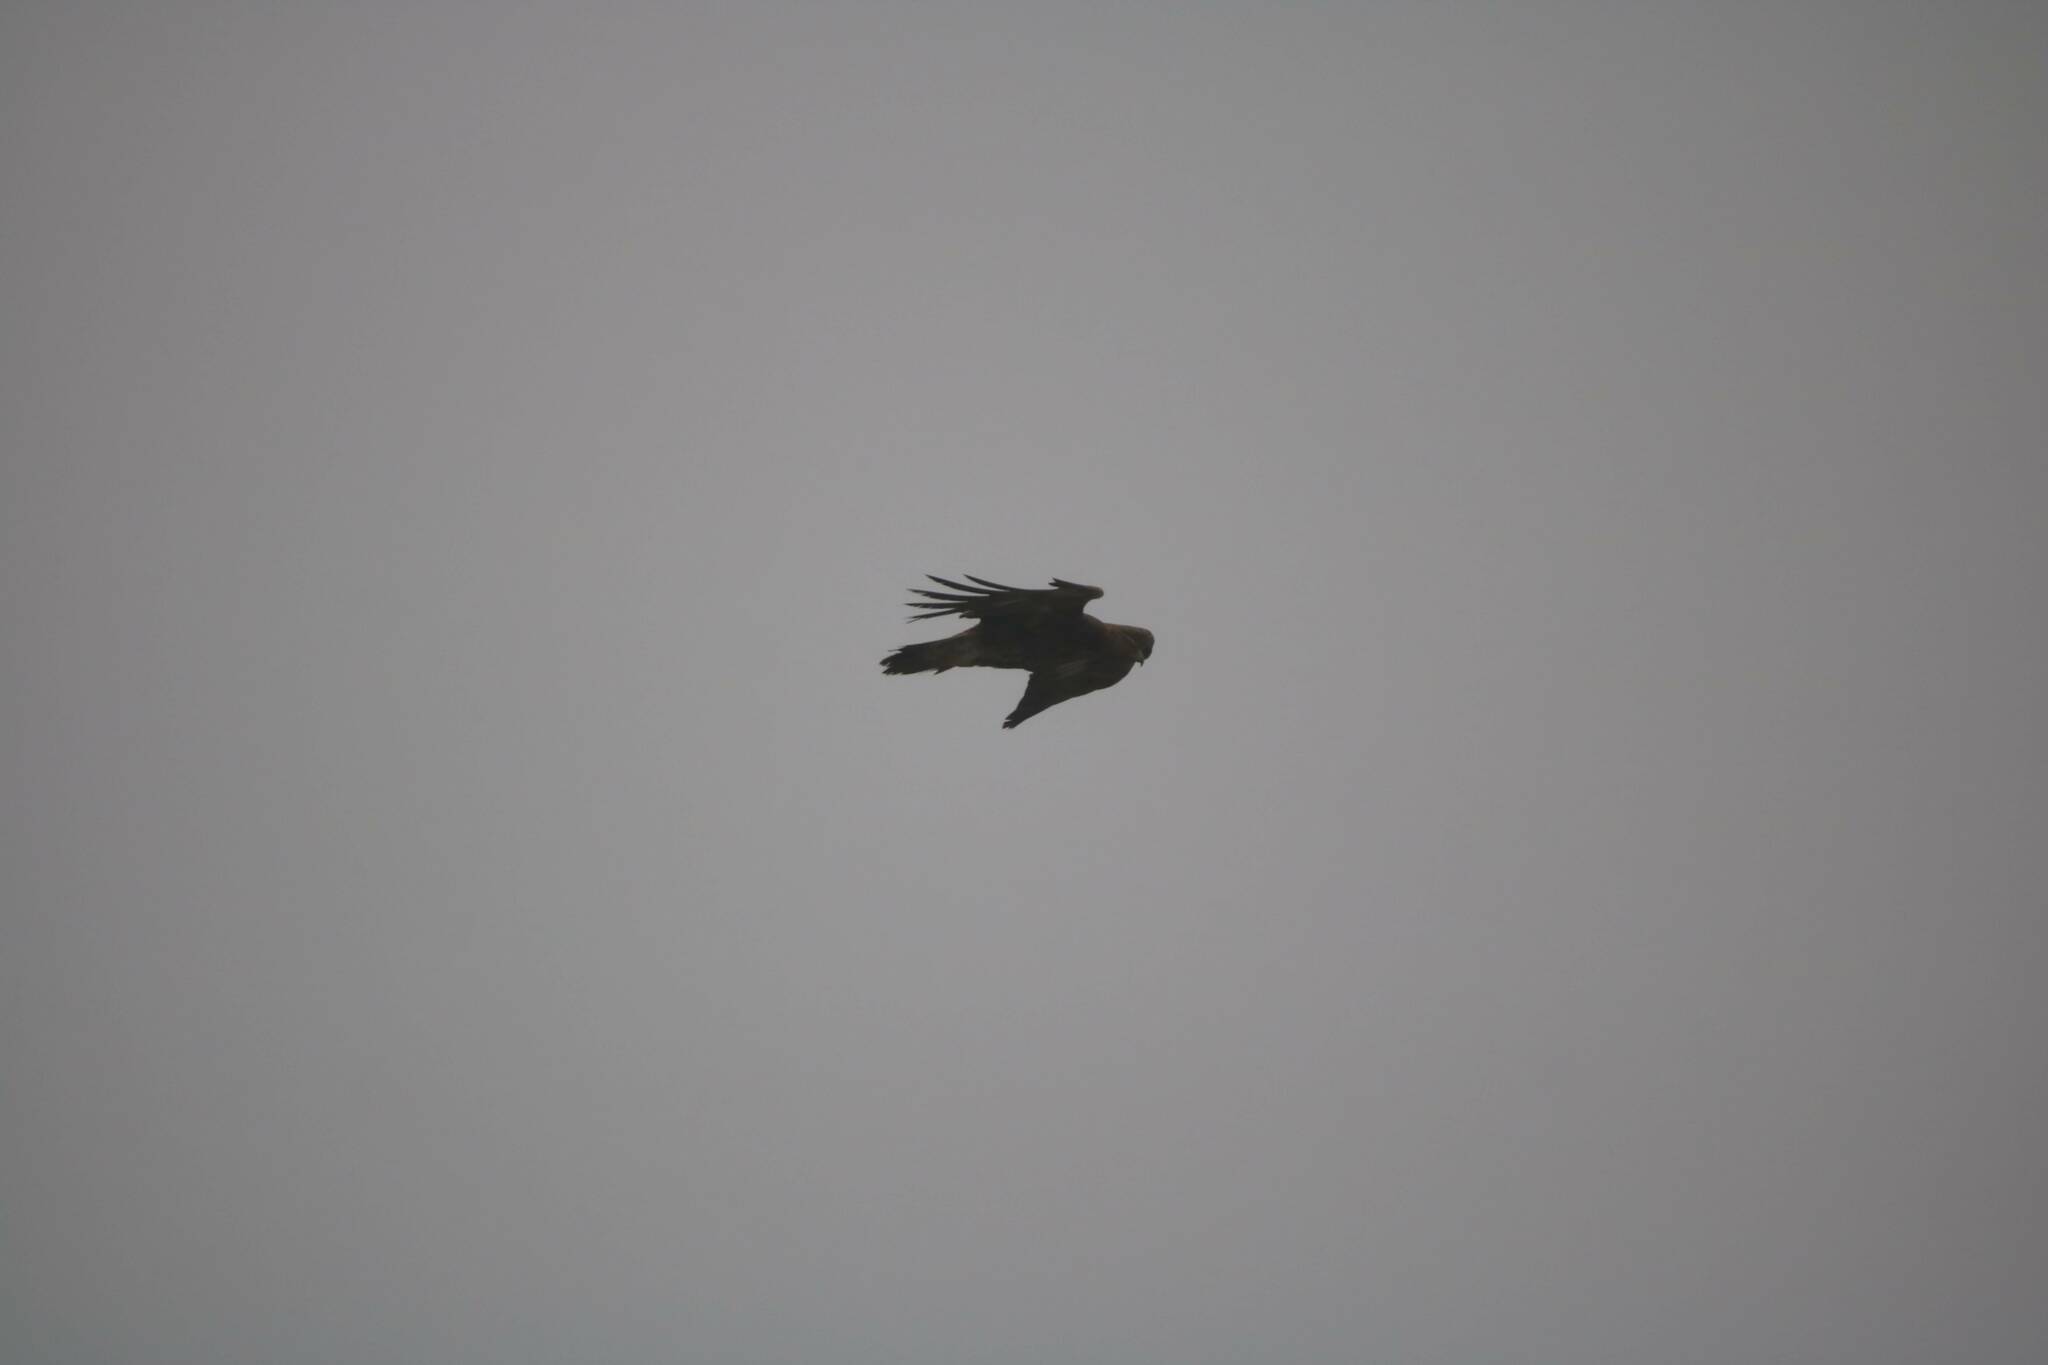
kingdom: Animalia
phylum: Chordata
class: Aves
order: Accipitriformes
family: Accipitridae
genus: Aquila
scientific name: Aquila chrysaetos
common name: Golden eagle
